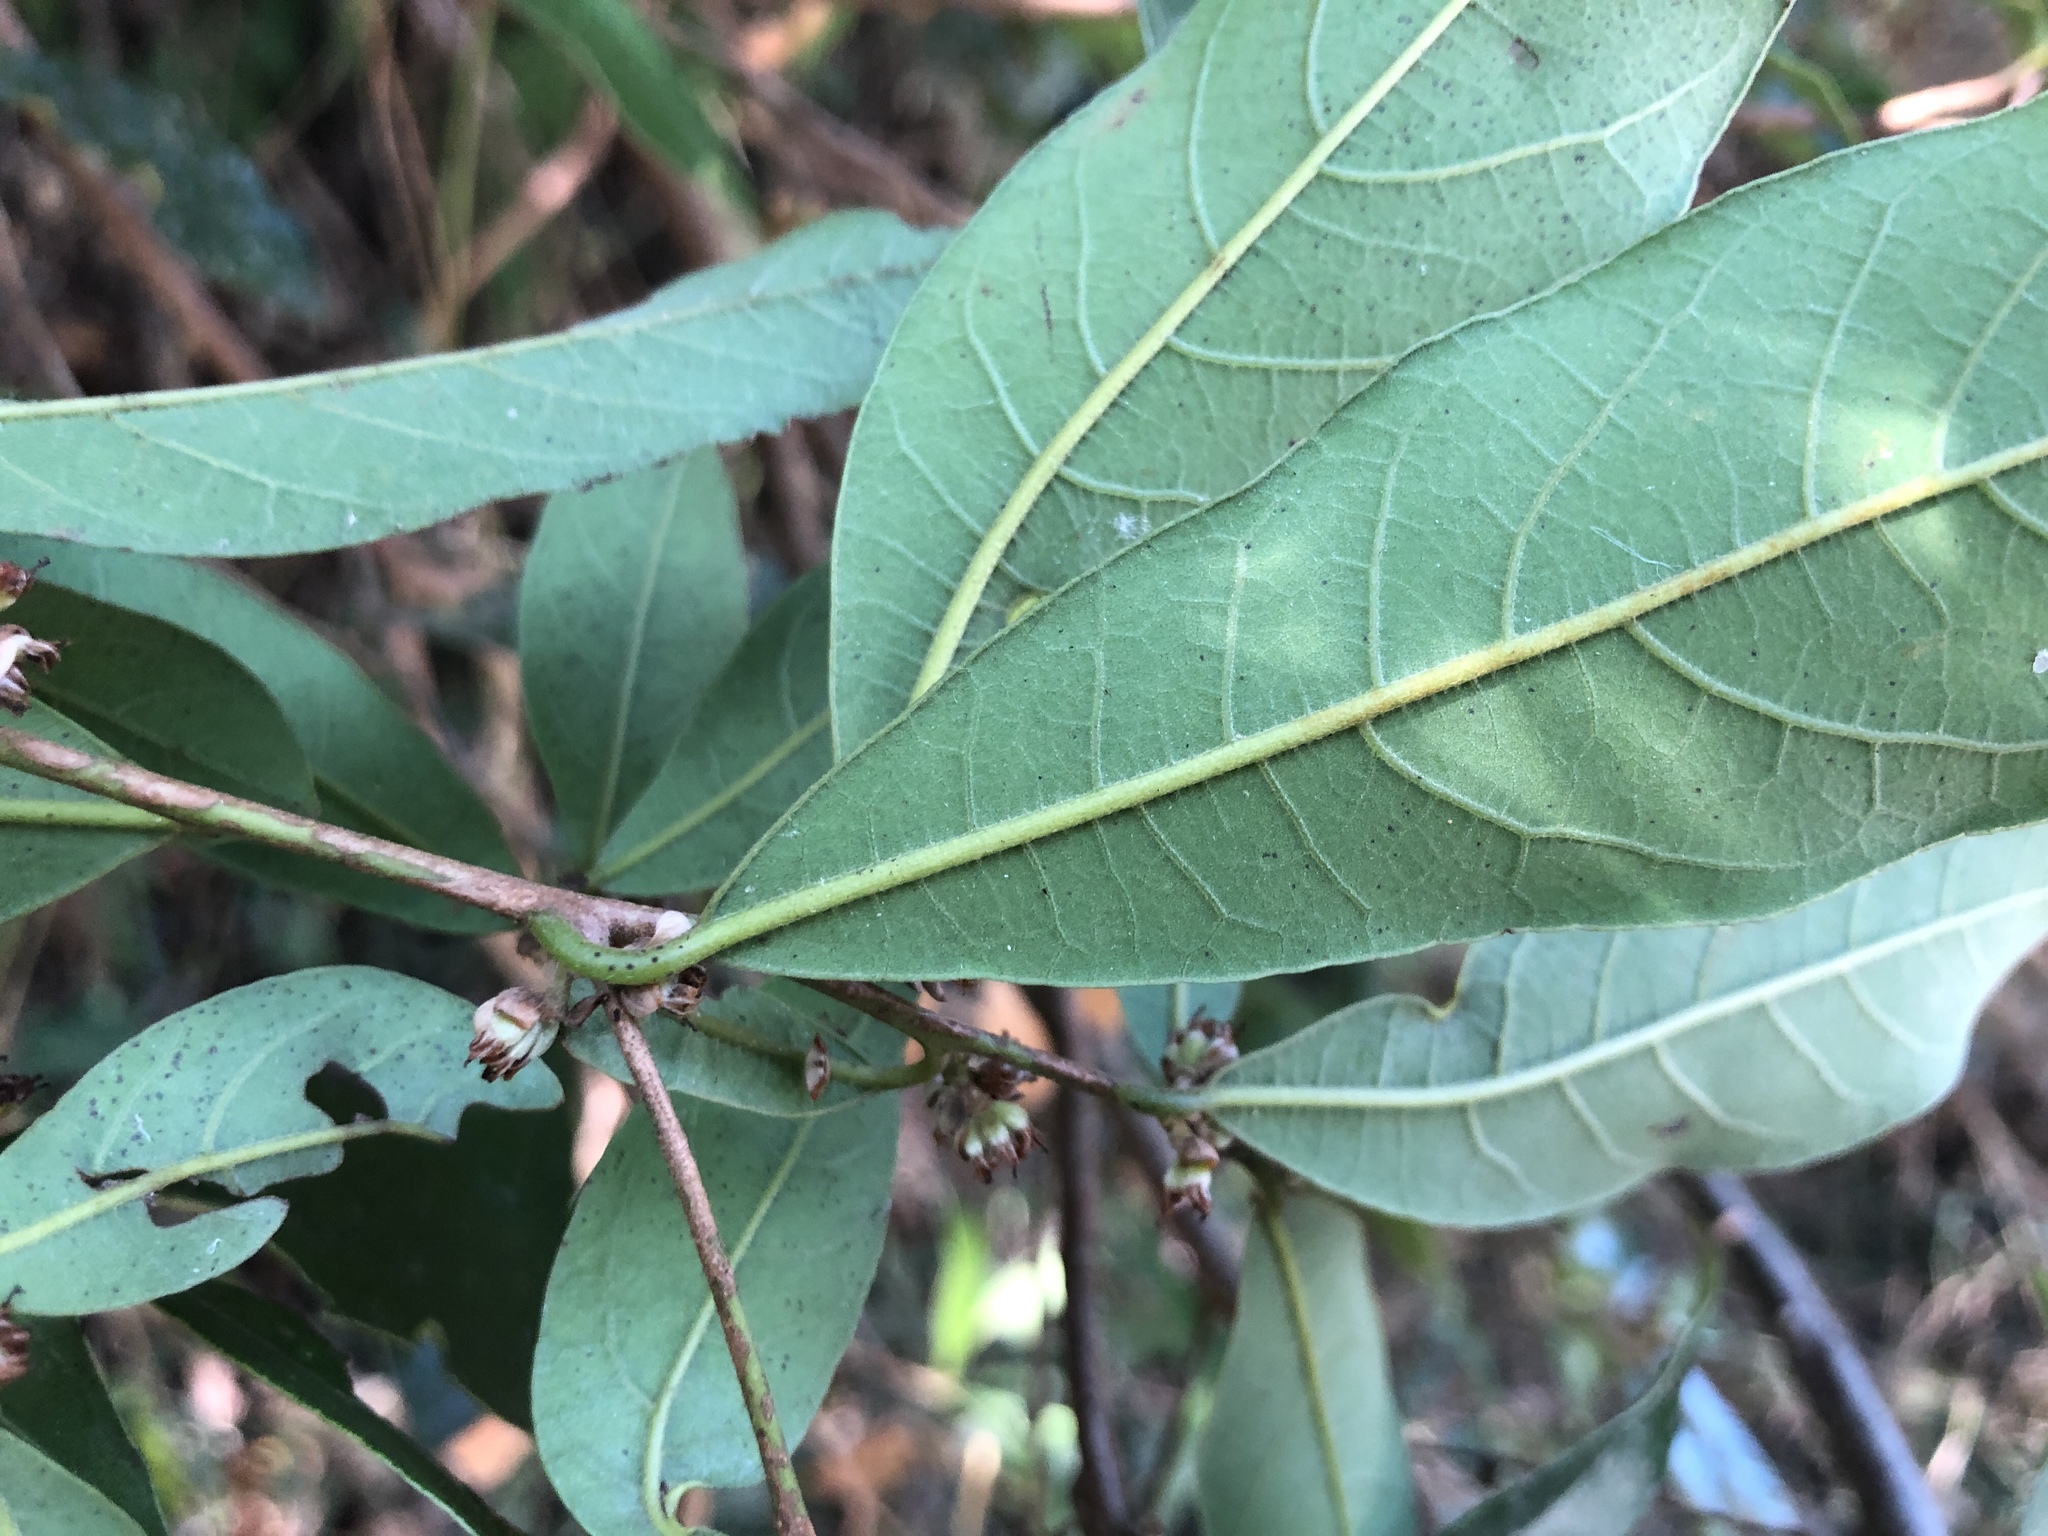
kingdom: Plantae
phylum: Tracheophyta
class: Magnoliopsida
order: Laurales
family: Lauraceae
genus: Litsea
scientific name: Litsea hypophaea
